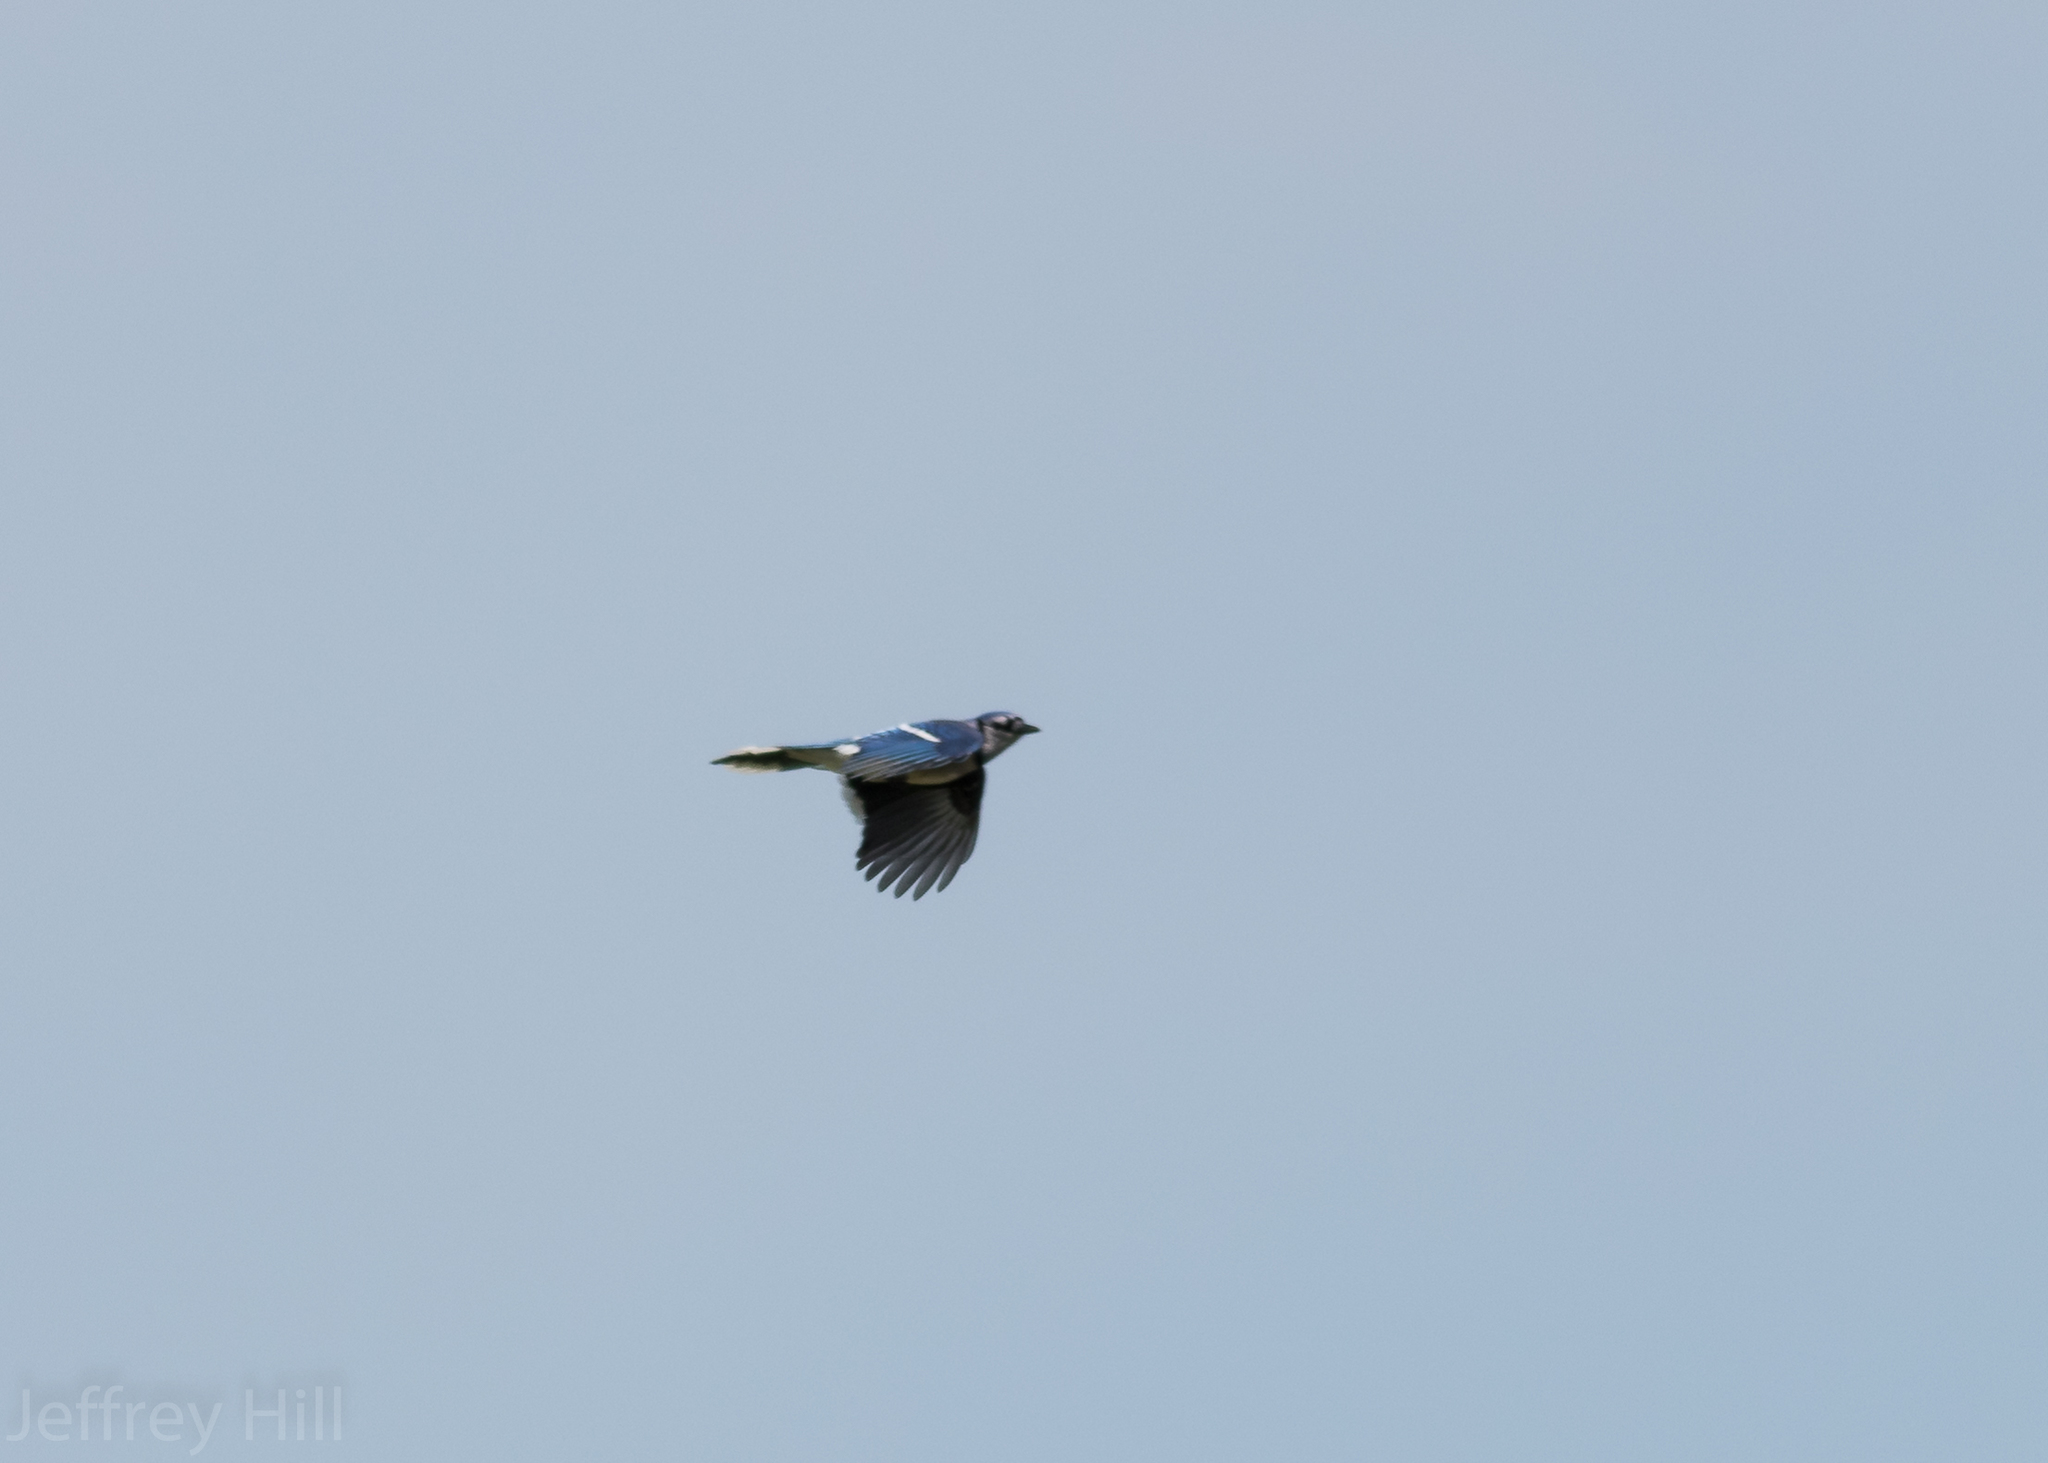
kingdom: Animalia
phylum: Chordata
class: Aves
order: Passeriformes
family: Corvidae
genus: Cyanocitta
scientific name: Cyanocitta cristata
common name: Blue jay
